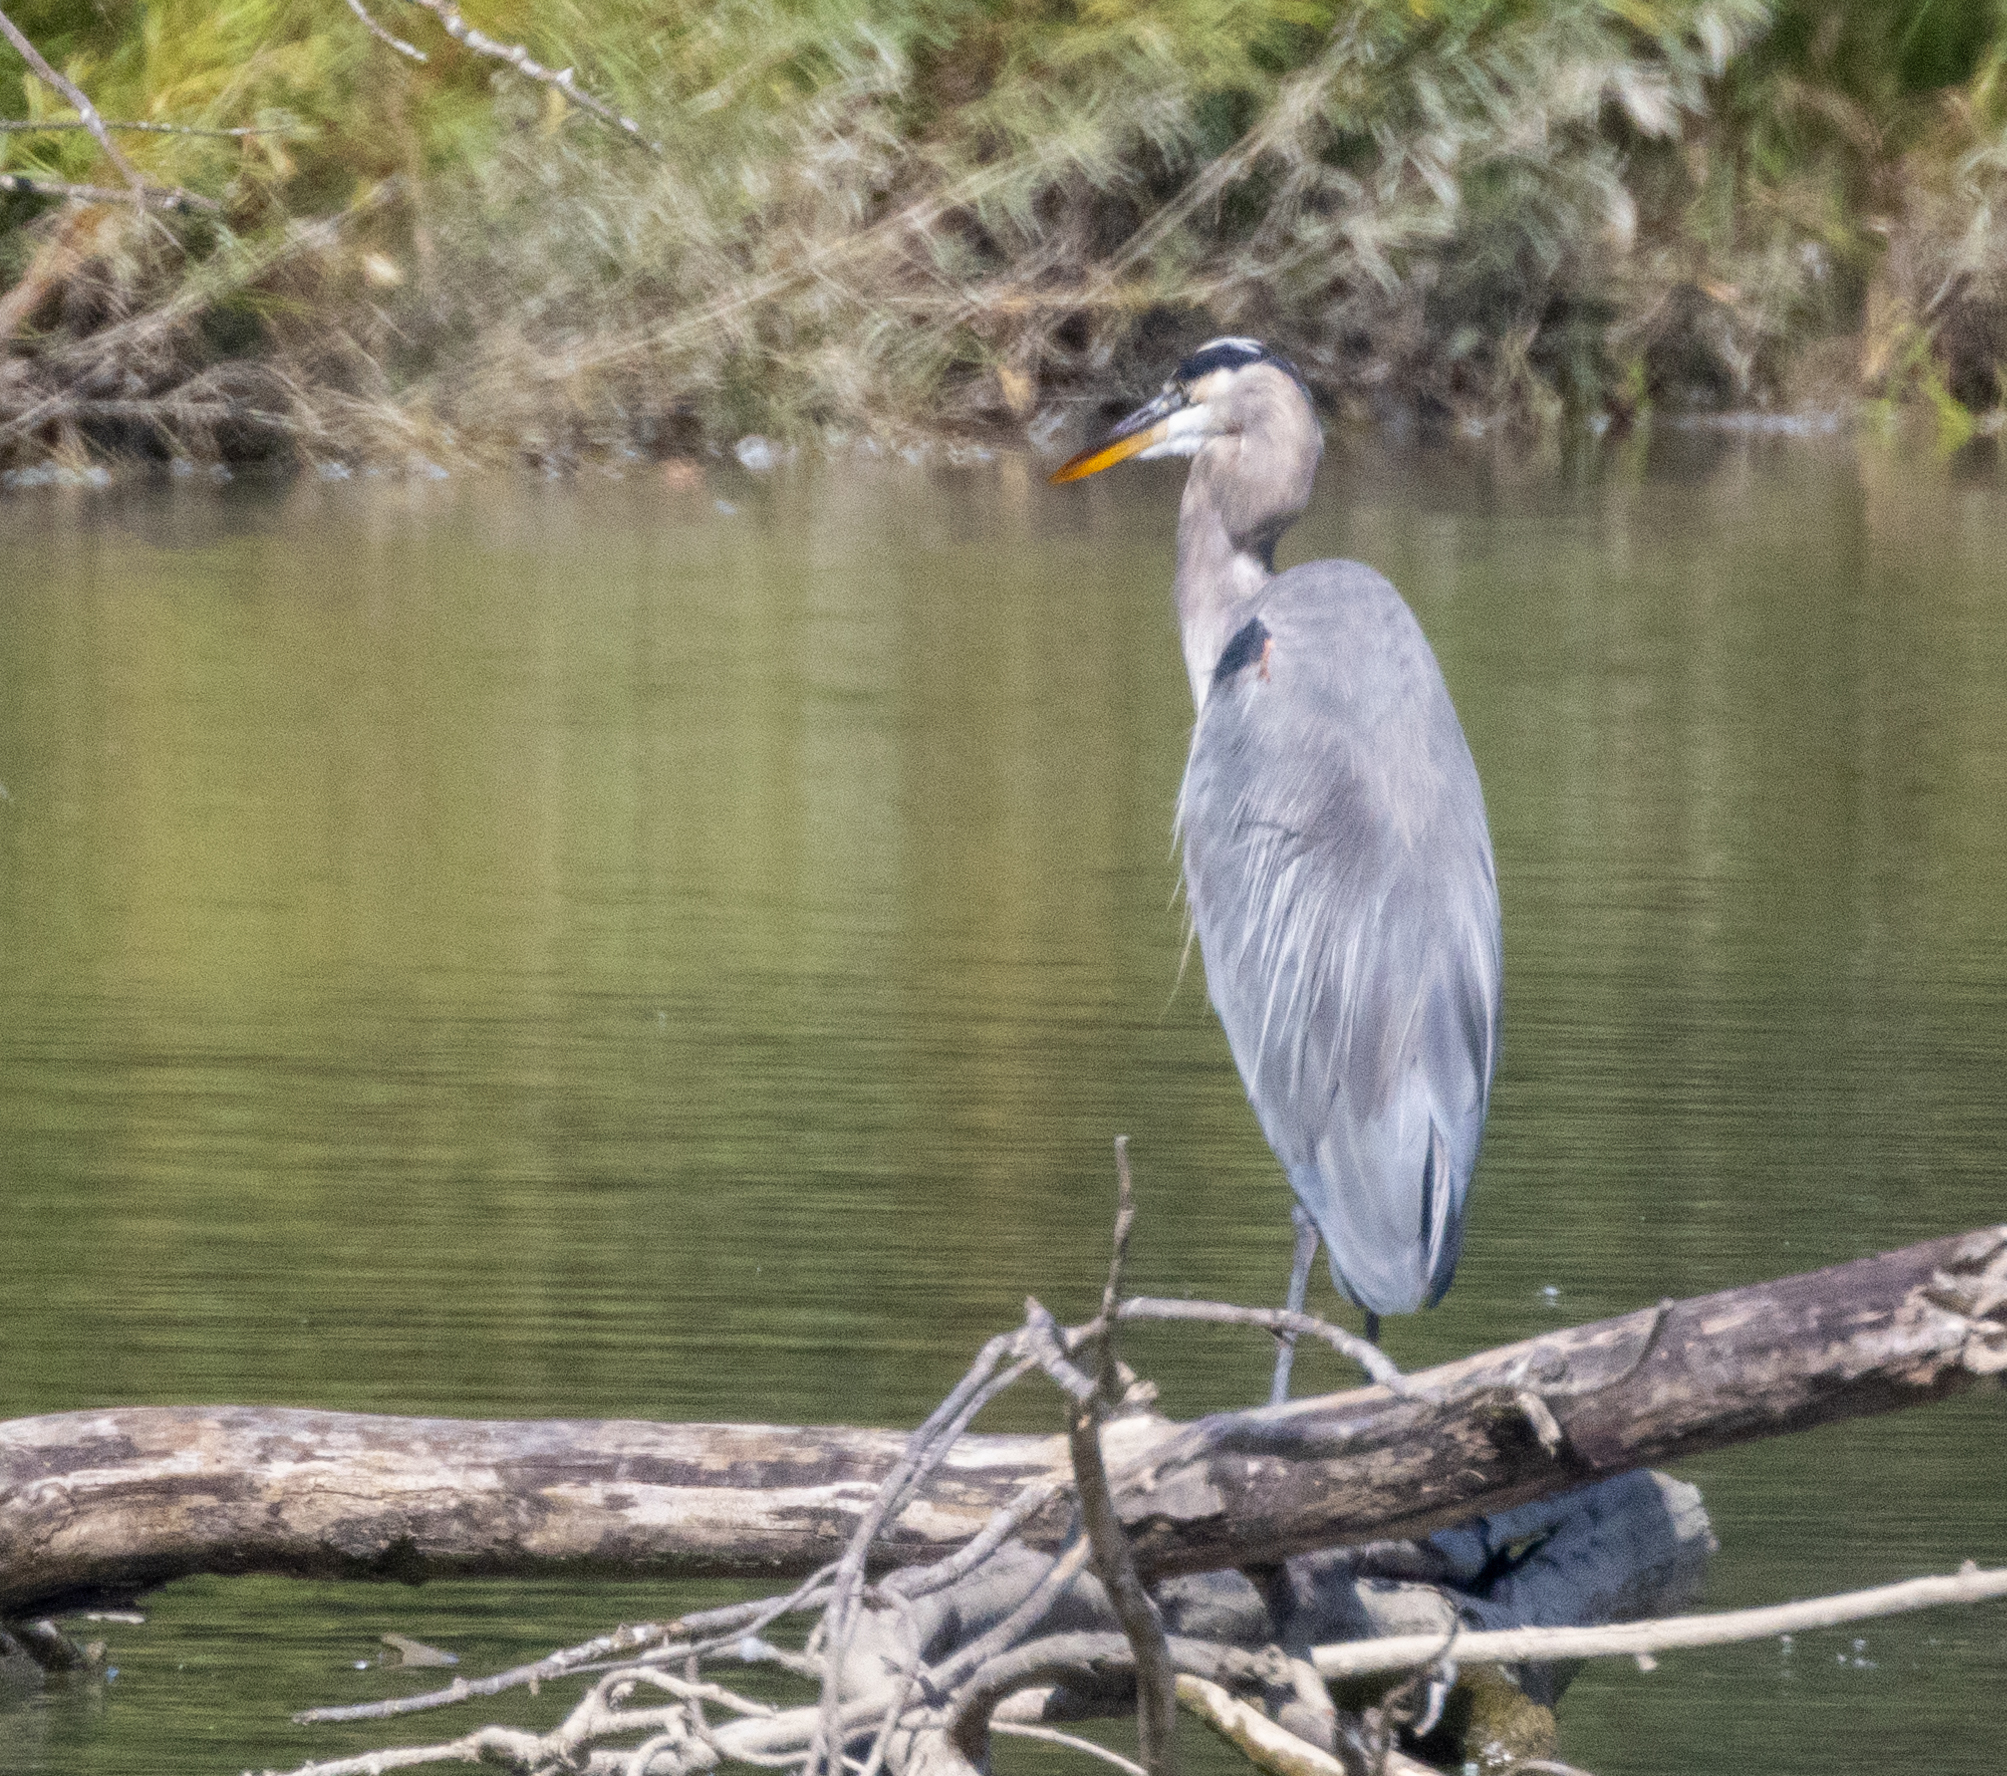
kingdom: Animalia
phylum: Chordata
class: Aves
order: Pelecaniformes
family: Ardeidae
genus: Ardea
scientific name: Ardea herodias
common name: Great blue heron
